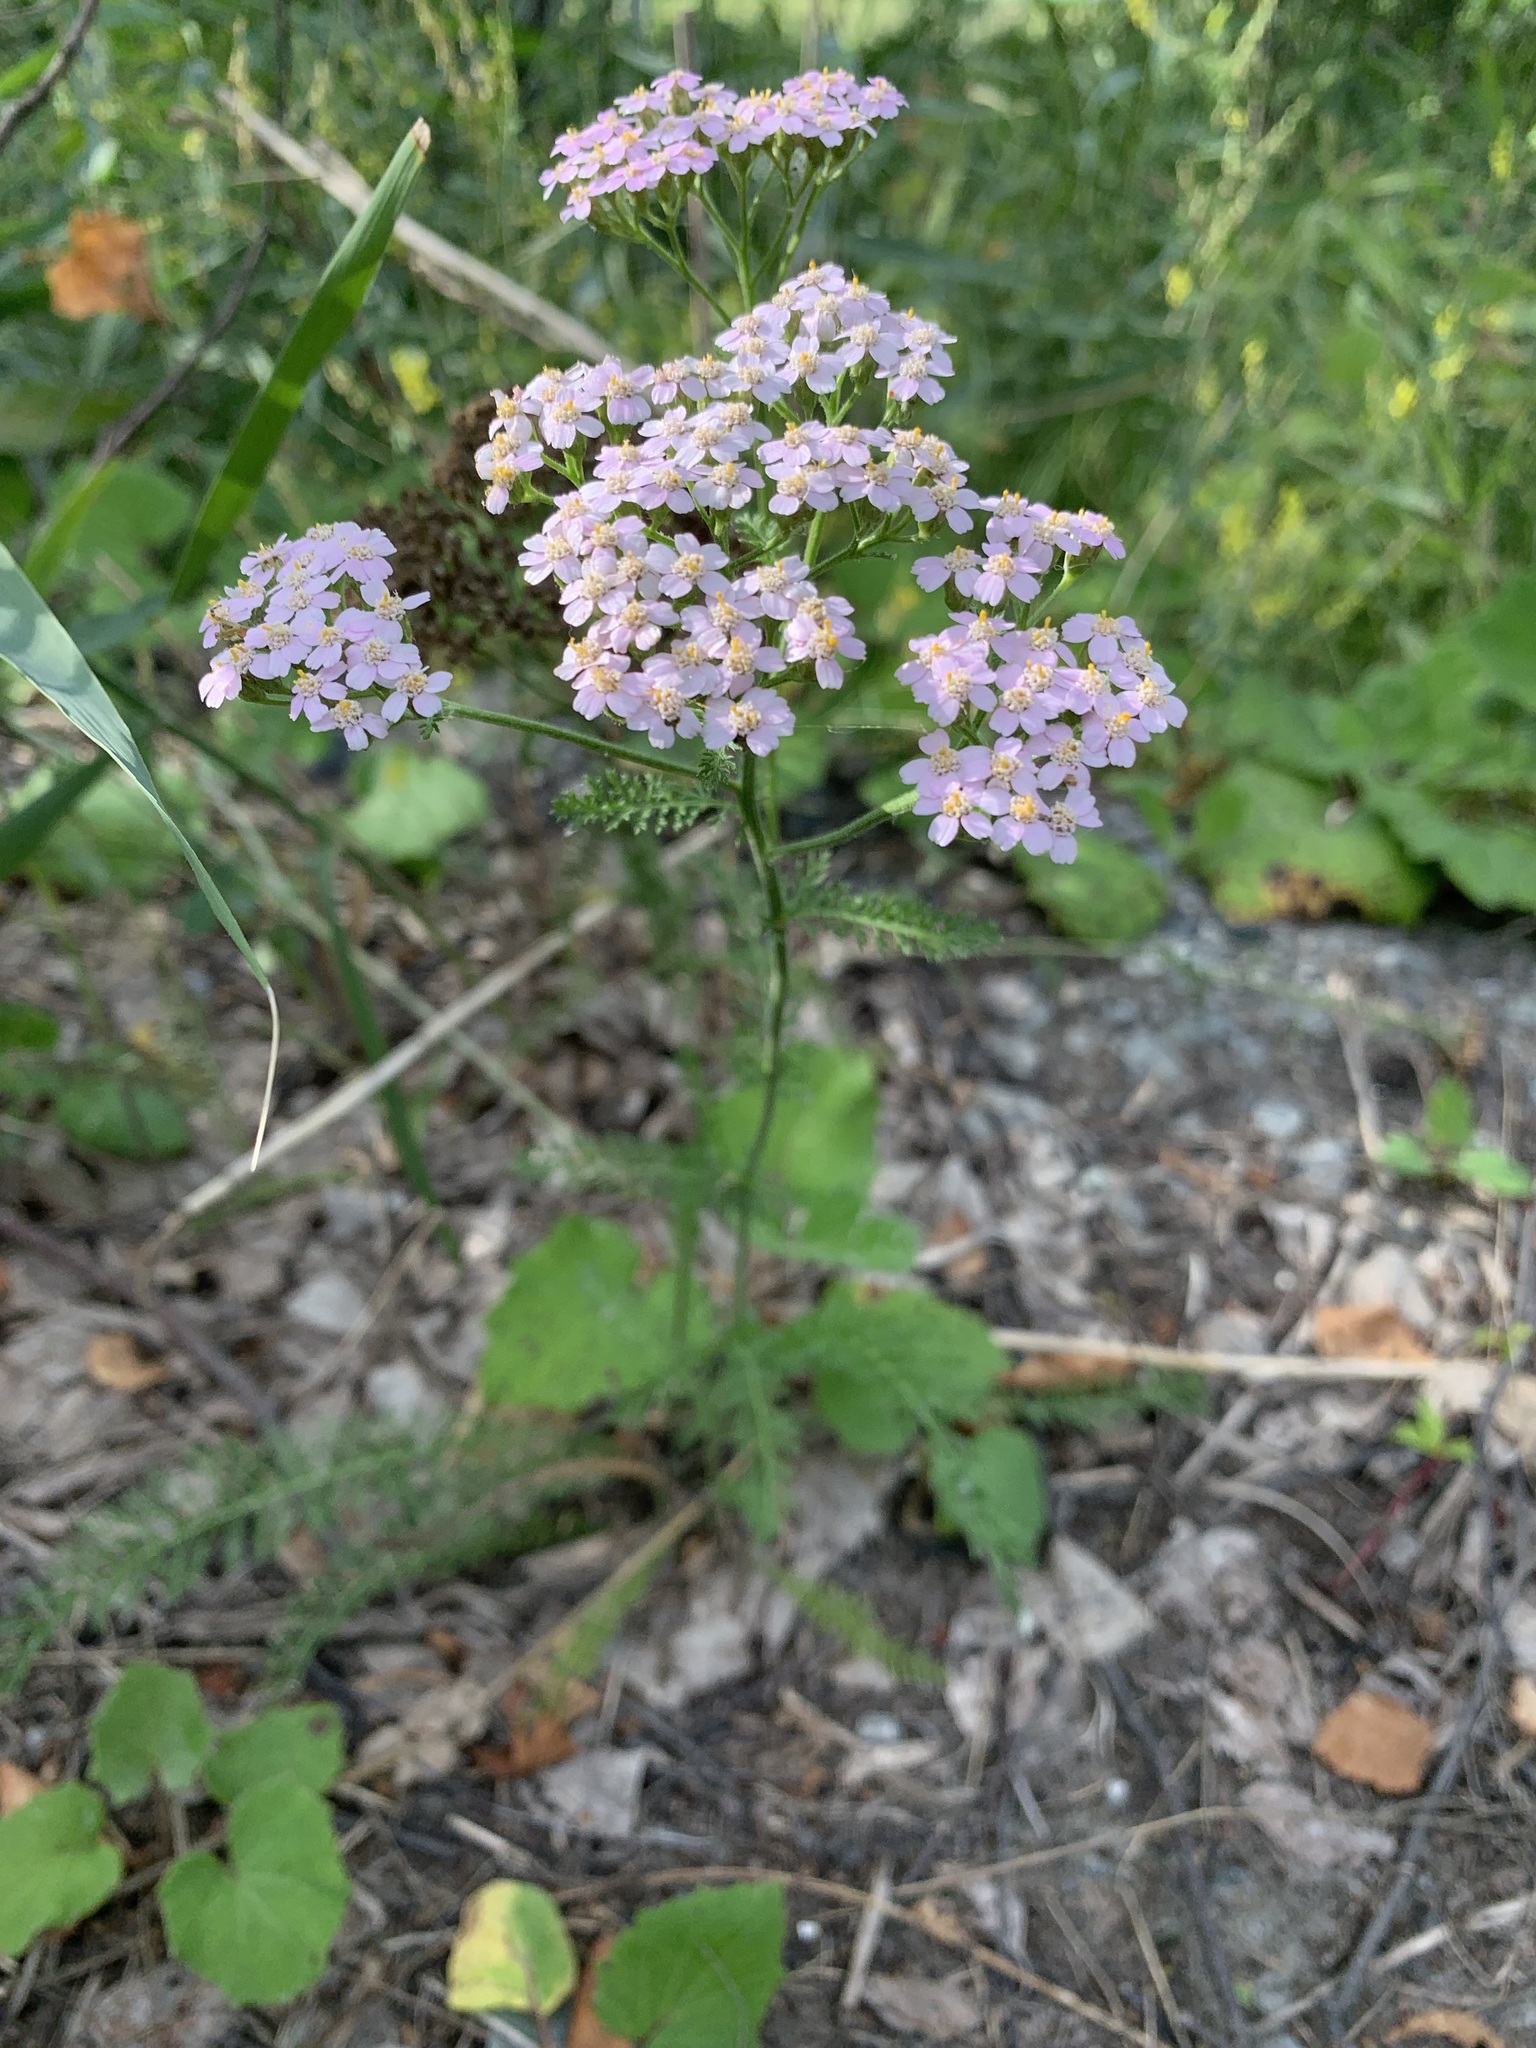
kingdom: Plantae
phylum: Tracheophyta
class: Magnoliopsida
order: Asterales
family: Asteraceae
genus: Achillea
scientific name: Achillea asiatica
